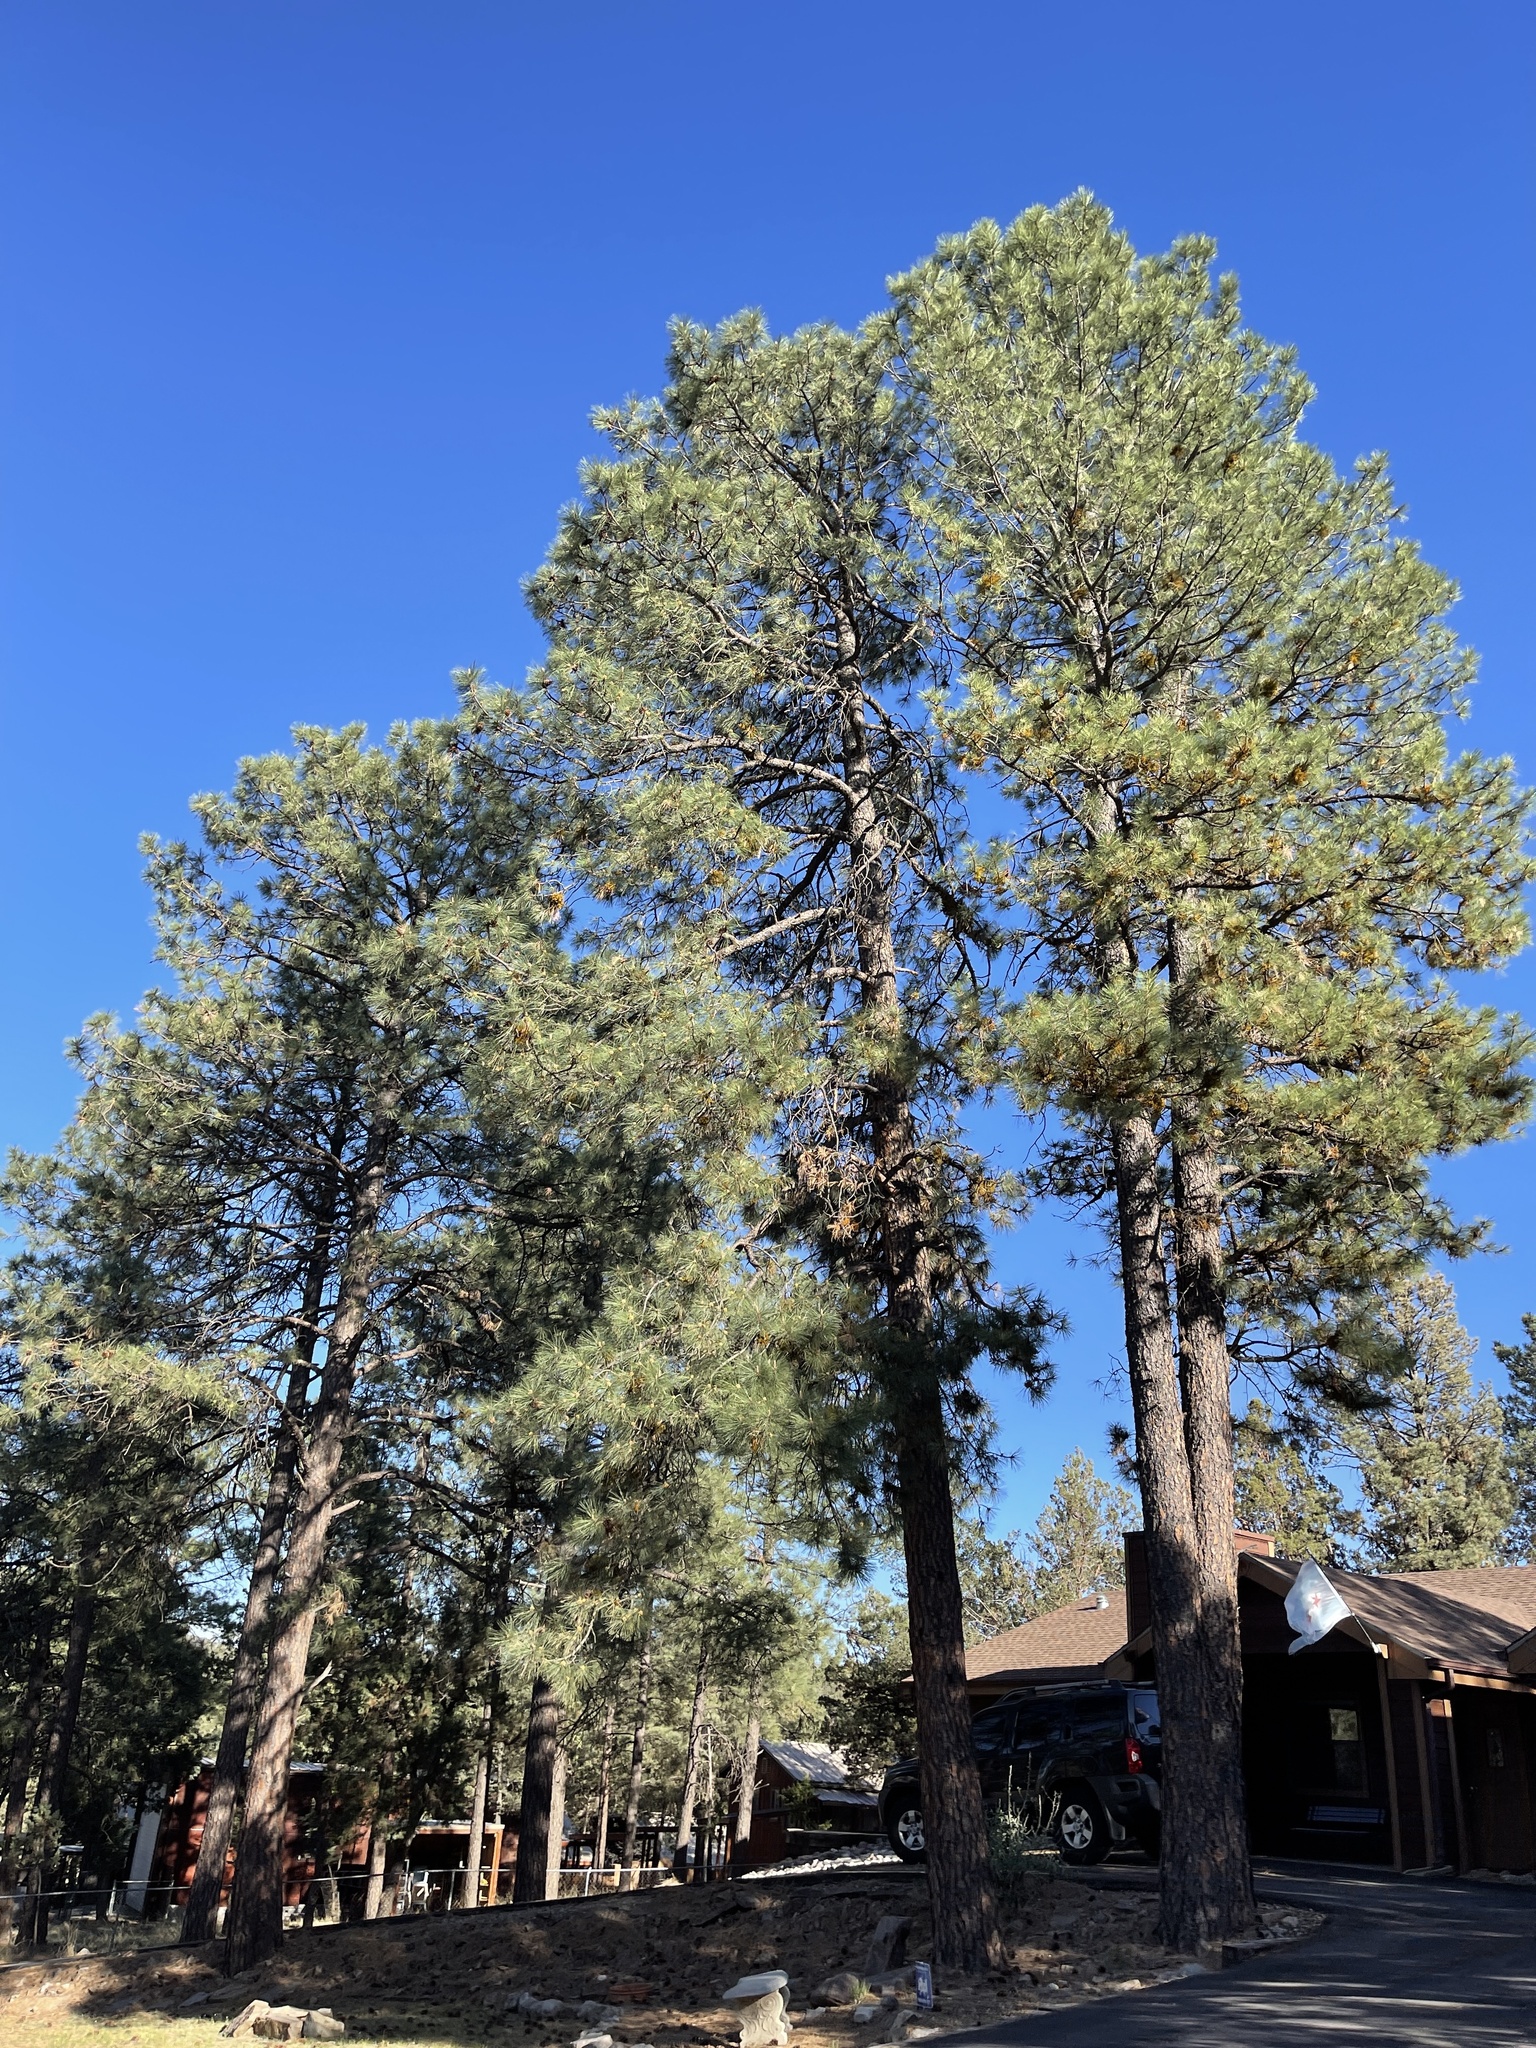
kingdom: Plantae
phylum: Tracheophyta
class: Pinopsida
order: Pinales
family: Pinaceae
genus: Pinus
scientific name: Pinus ponderosa
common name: Western yellow-pine
